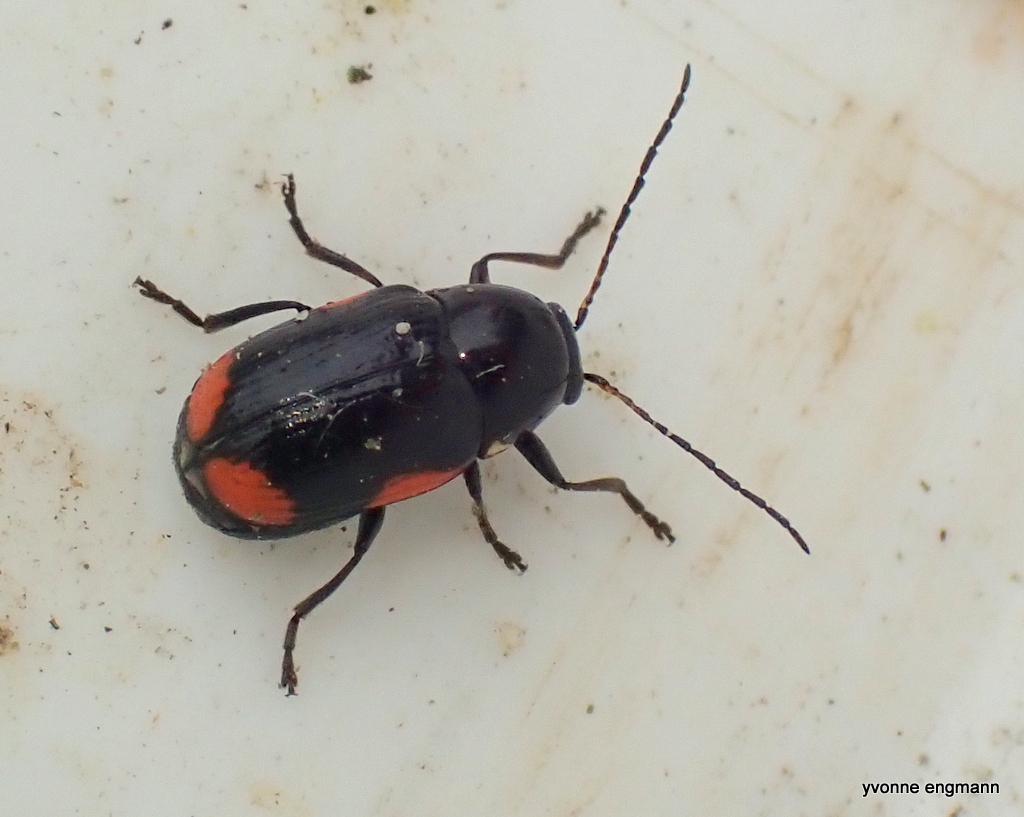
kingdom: Animalia
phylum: Arthropoda
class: Insecta
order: Coleoptera
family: Chrysomelidae
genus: Cryptocephalus
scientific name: Cryptocephalus moraei
